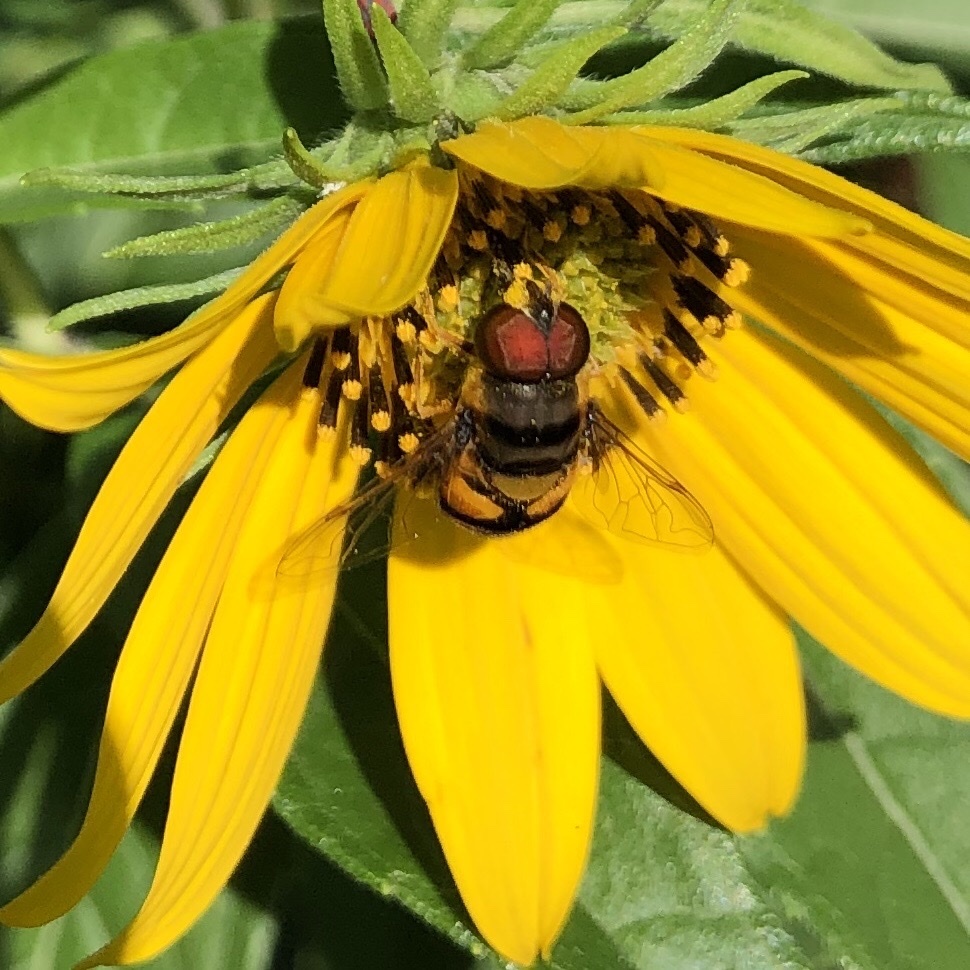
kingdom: Animalia
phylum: Arthropoda
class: Insecta
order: Diptera
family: Syrphidae
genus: Eristalis
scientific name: Eristalis transversa
